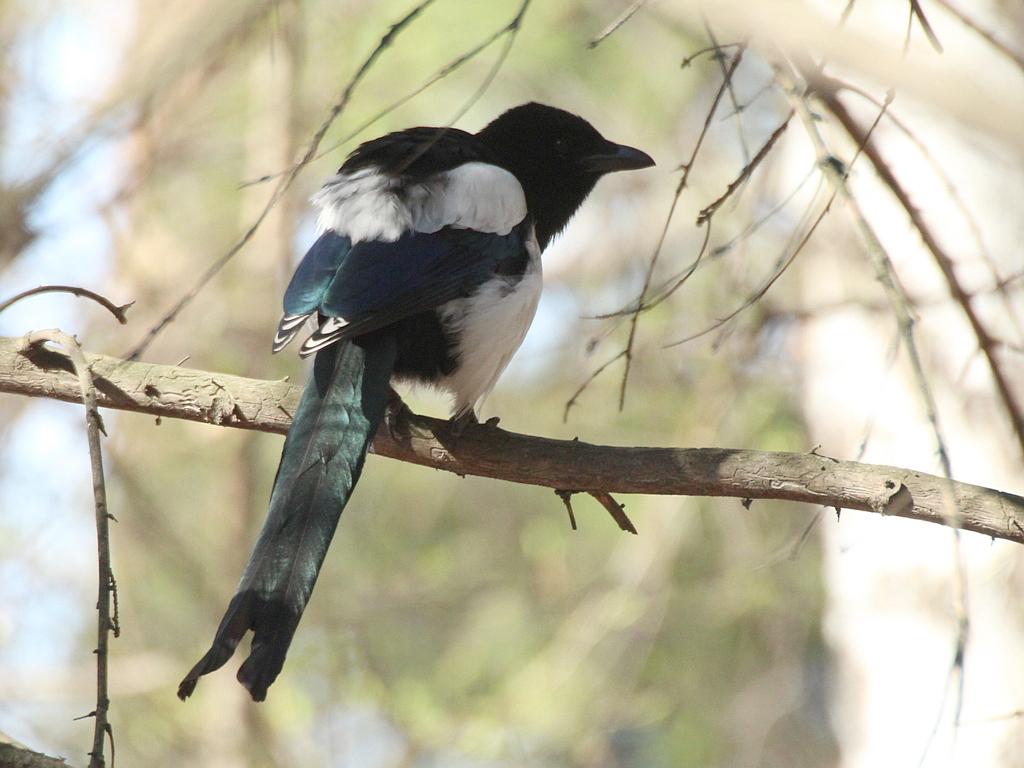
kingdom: Animalia
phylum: Chordata
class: Aves
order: Passeriformes
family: Corvidae
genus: Pica
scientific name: Pica pica
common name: Eurasian magpie
